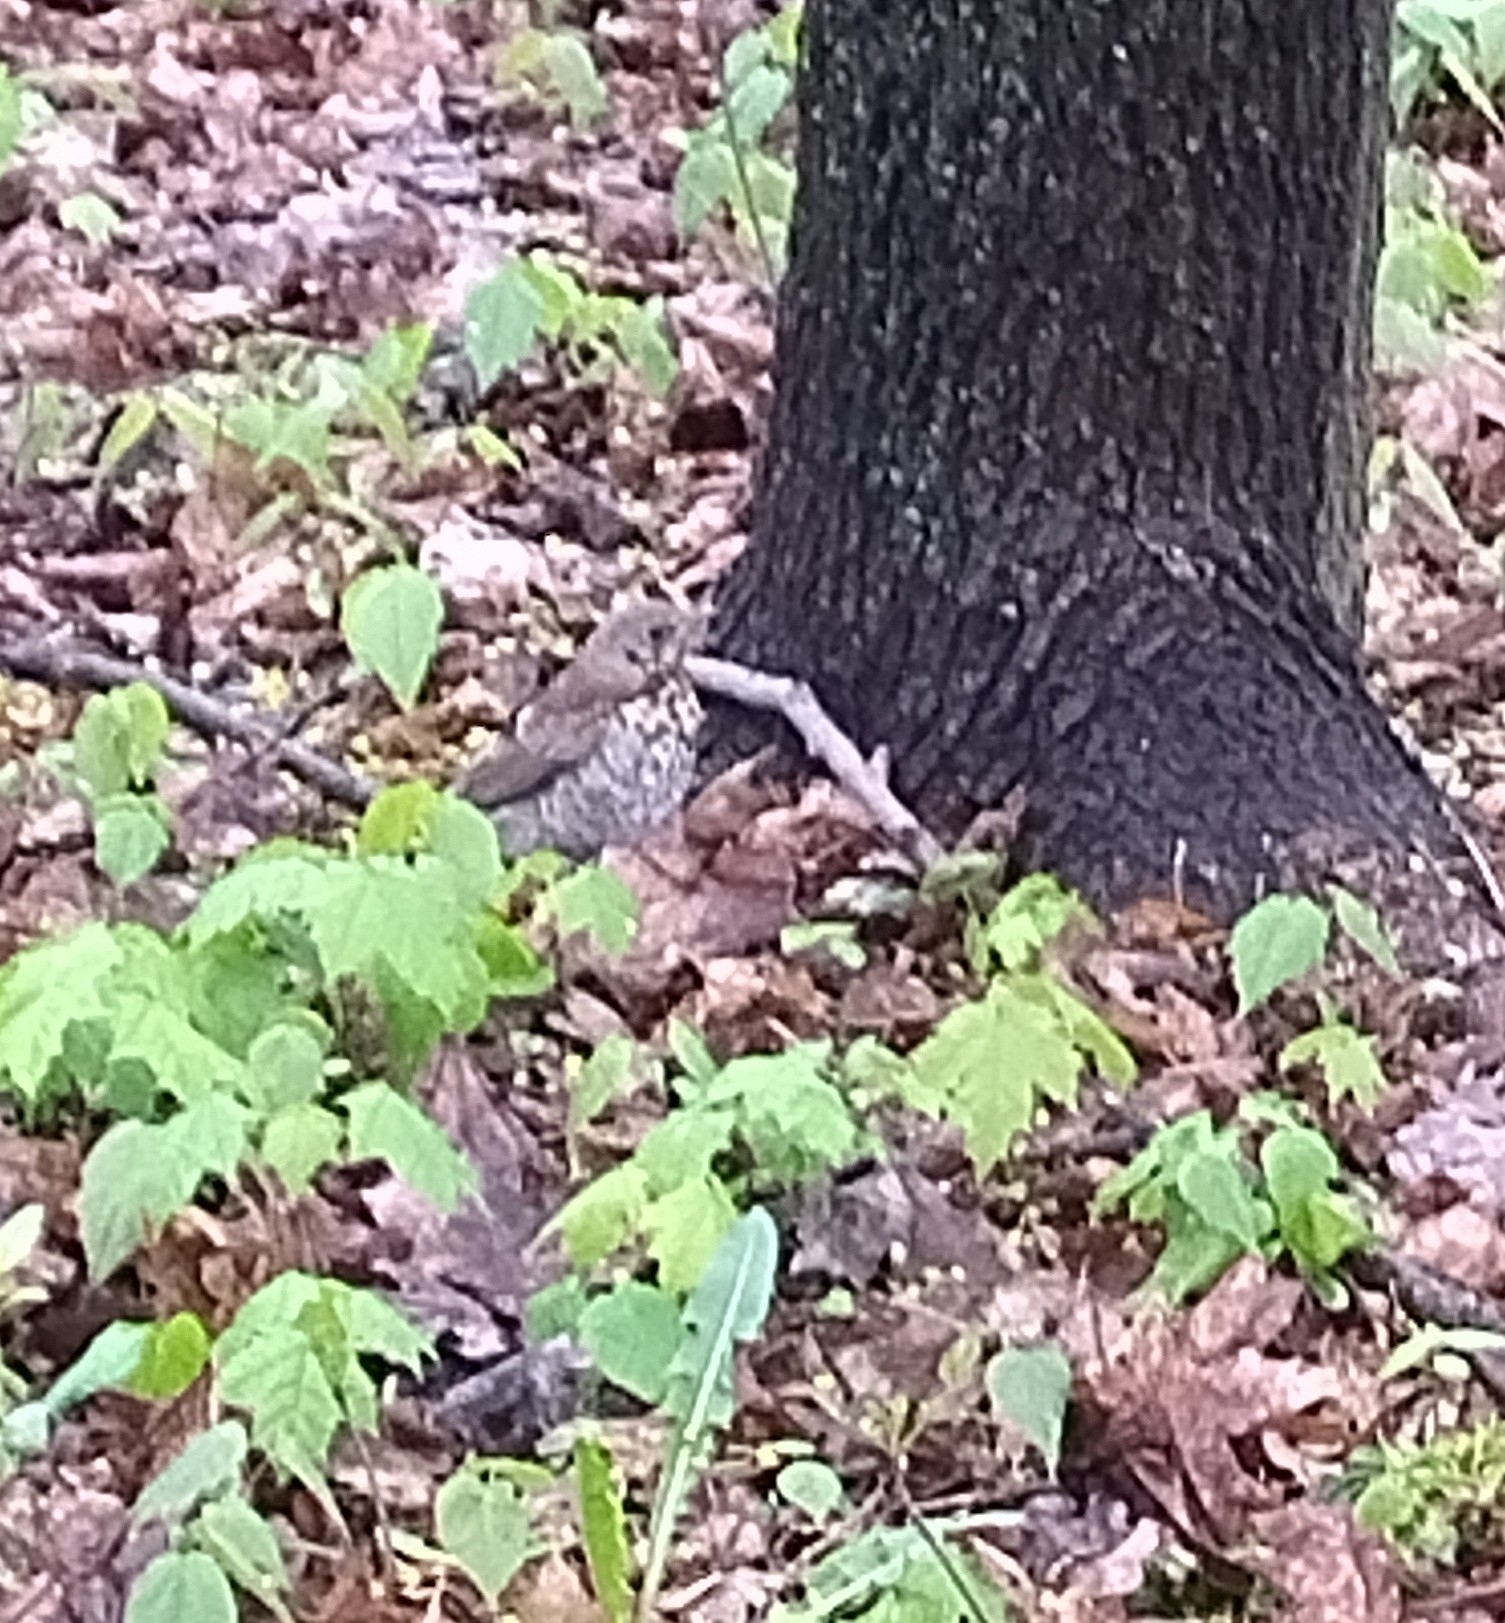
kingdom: Animalia
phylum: Chordata
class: Aves
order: Passeriformes
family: Turdidae
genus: Turdus
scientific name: Turdus pilaris
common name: Fieldfare
